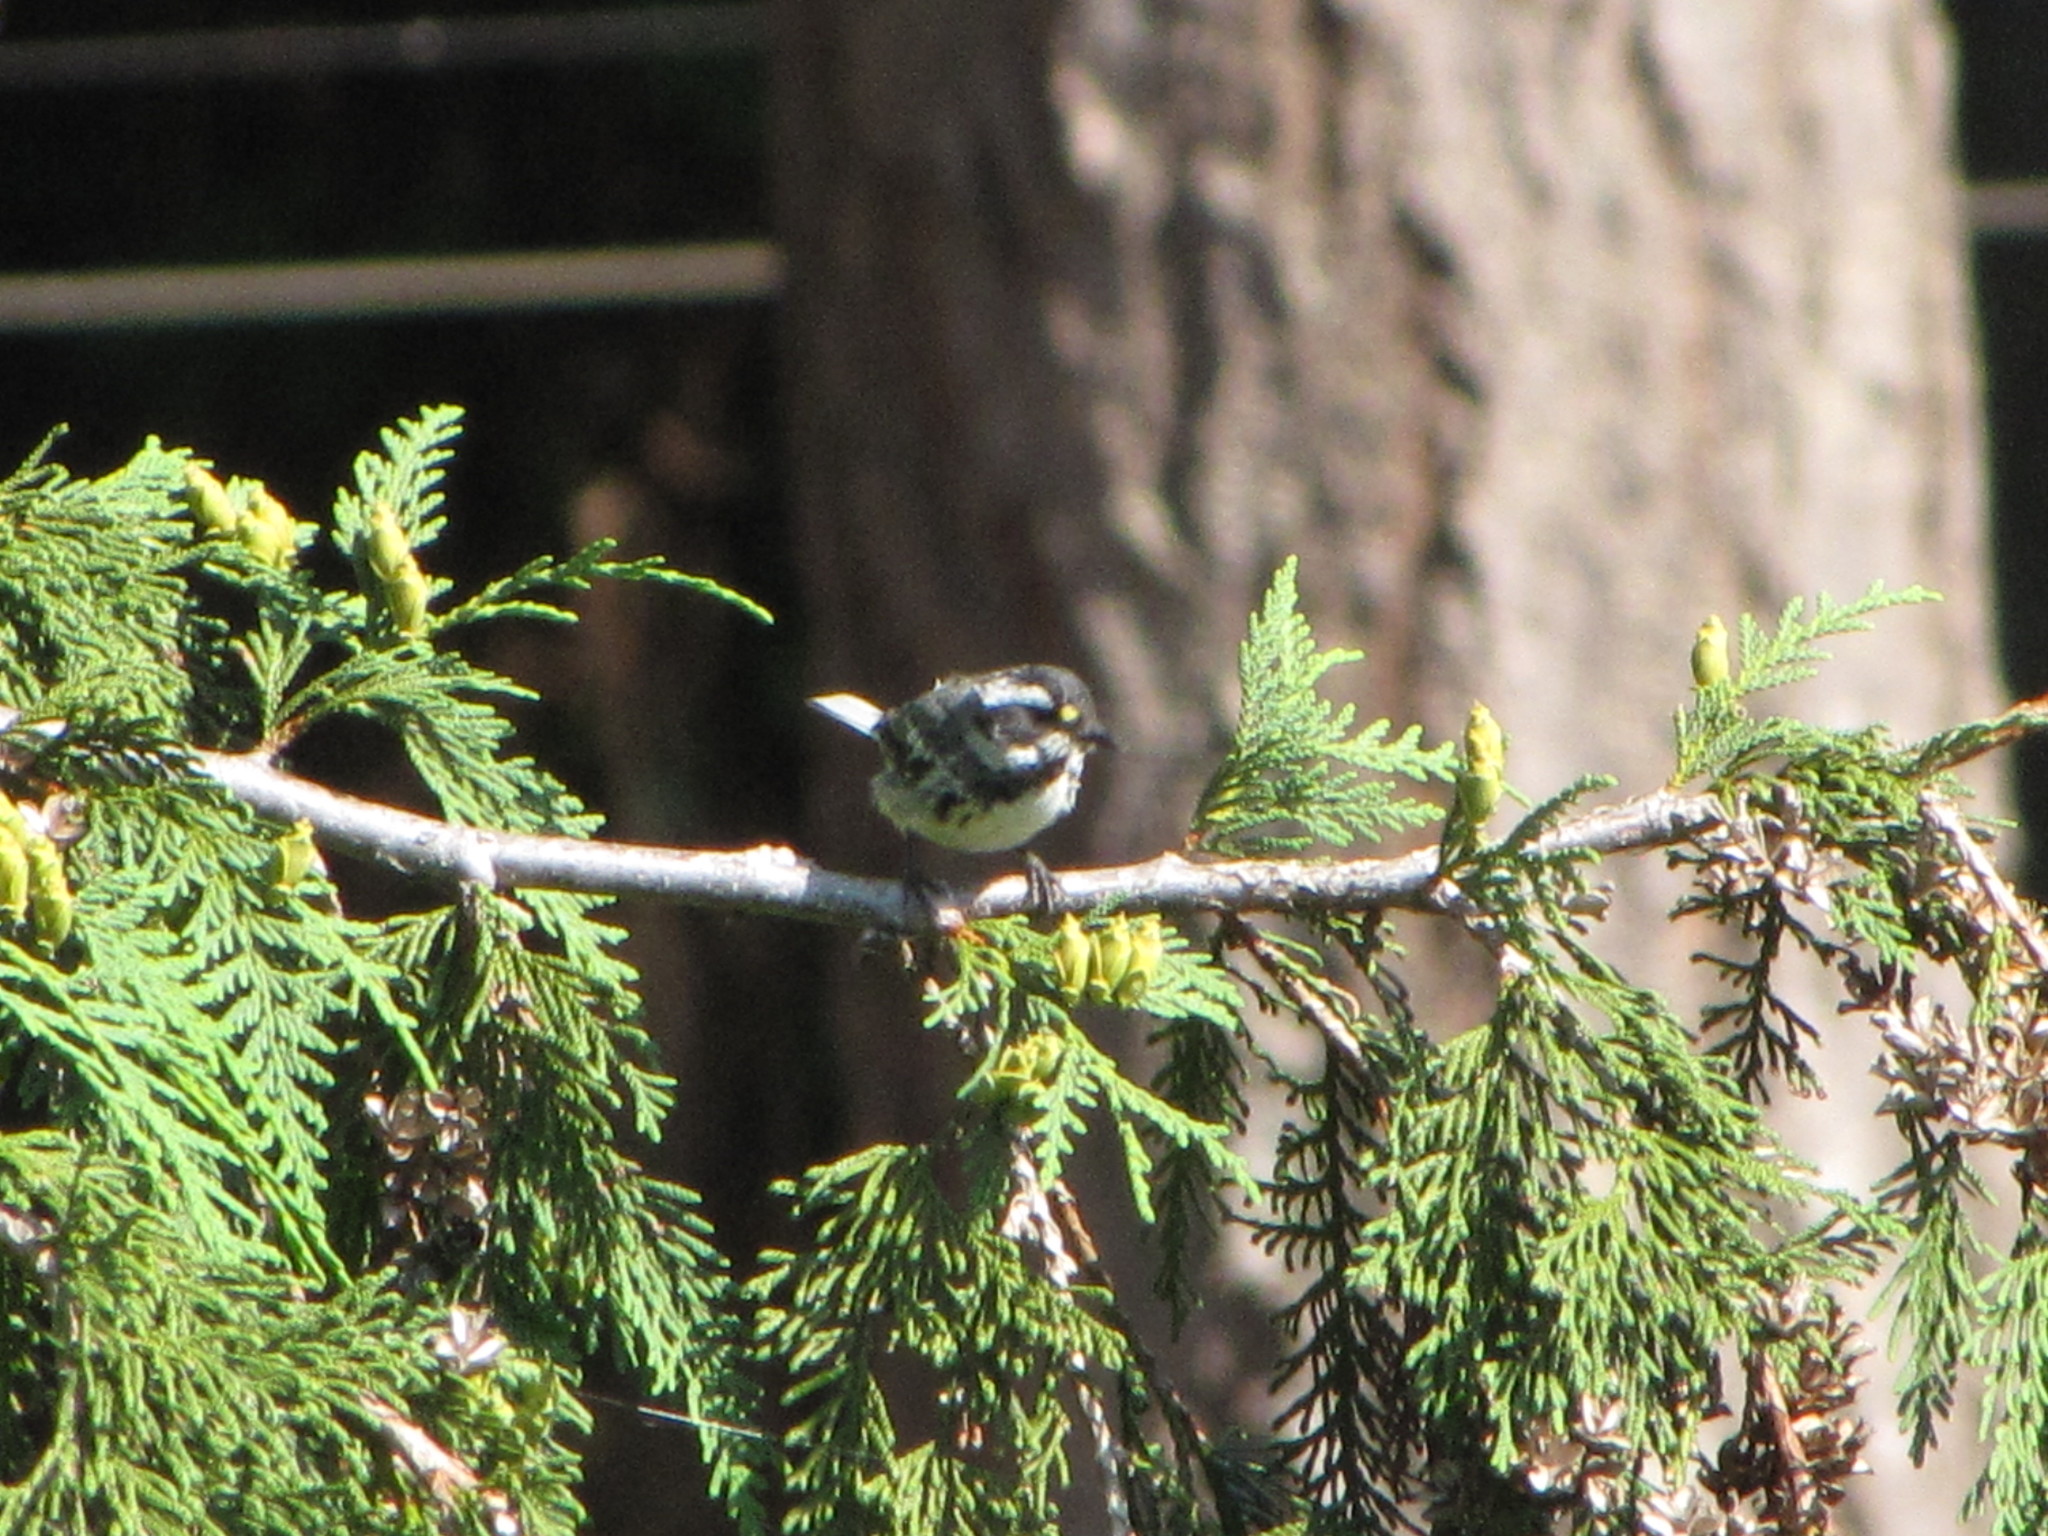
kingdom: Animalia
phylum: Chordata
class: Aves
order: Passeriformes
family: Parulidae
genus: Setophaga
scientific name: Setophaga nigrescens
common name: Black-throated gray warbler
